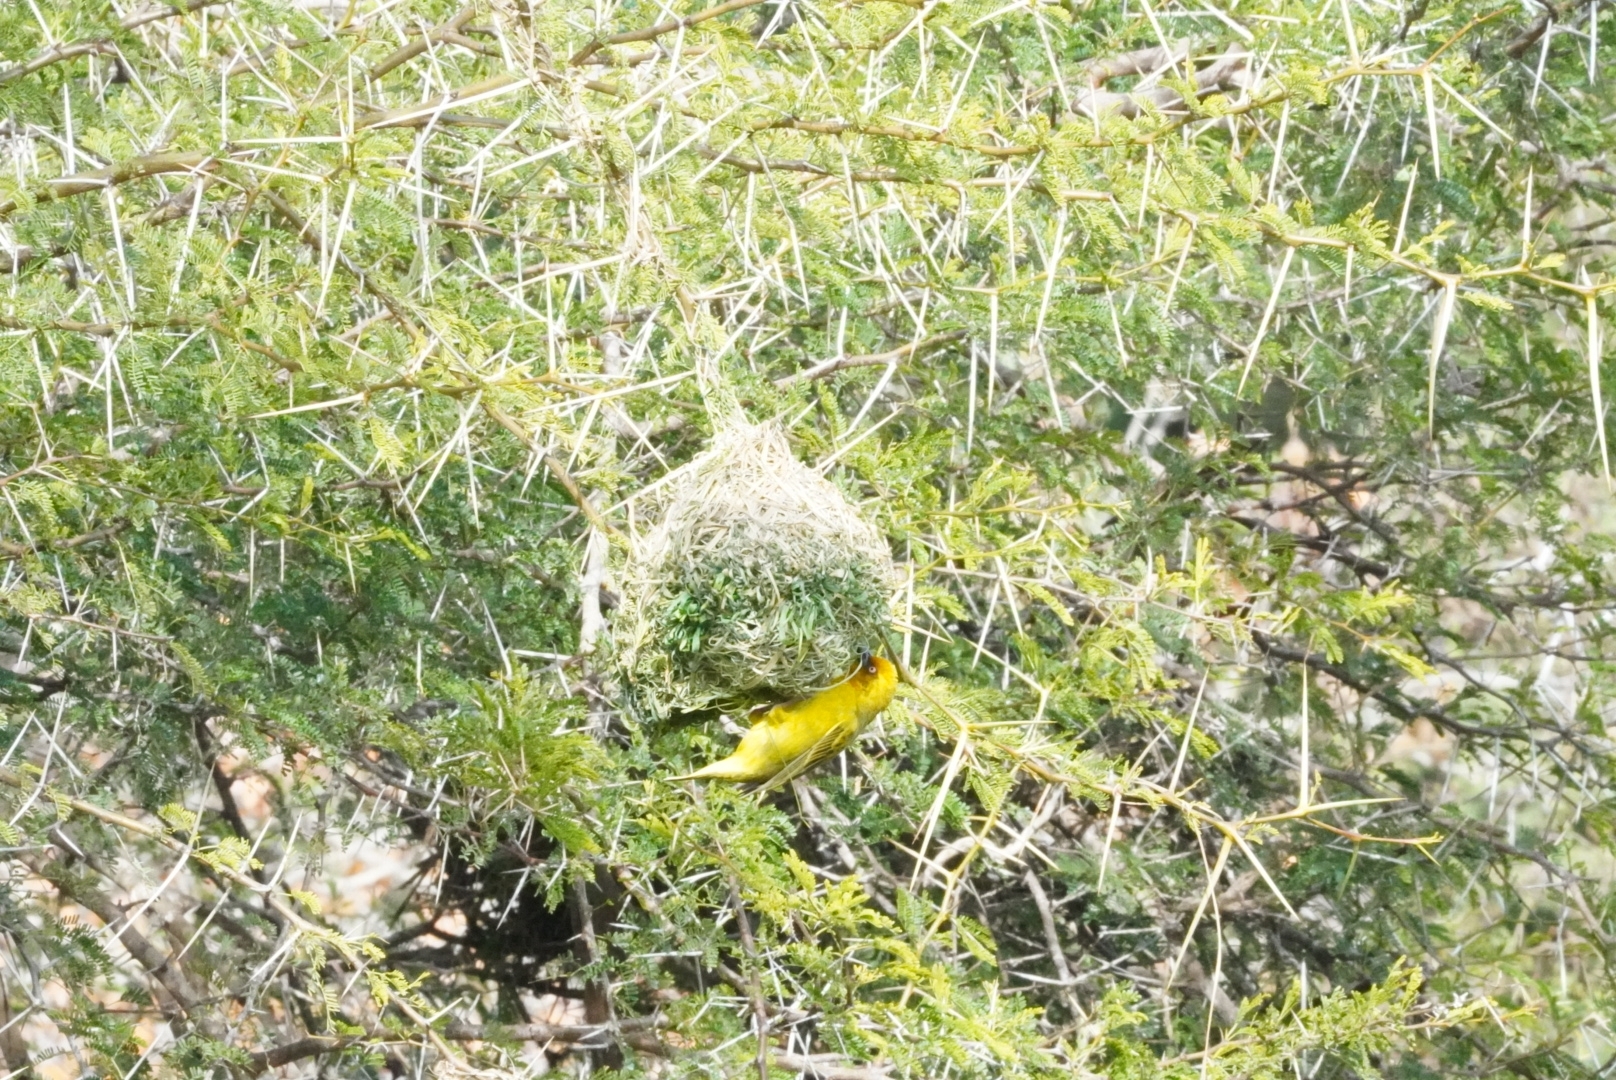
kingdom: Animalia
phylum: Chordata
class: Aves
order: Passeriformes
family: Ploceidae
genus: Ploceus
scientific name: Ploceus capensis
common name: Cape weaver
